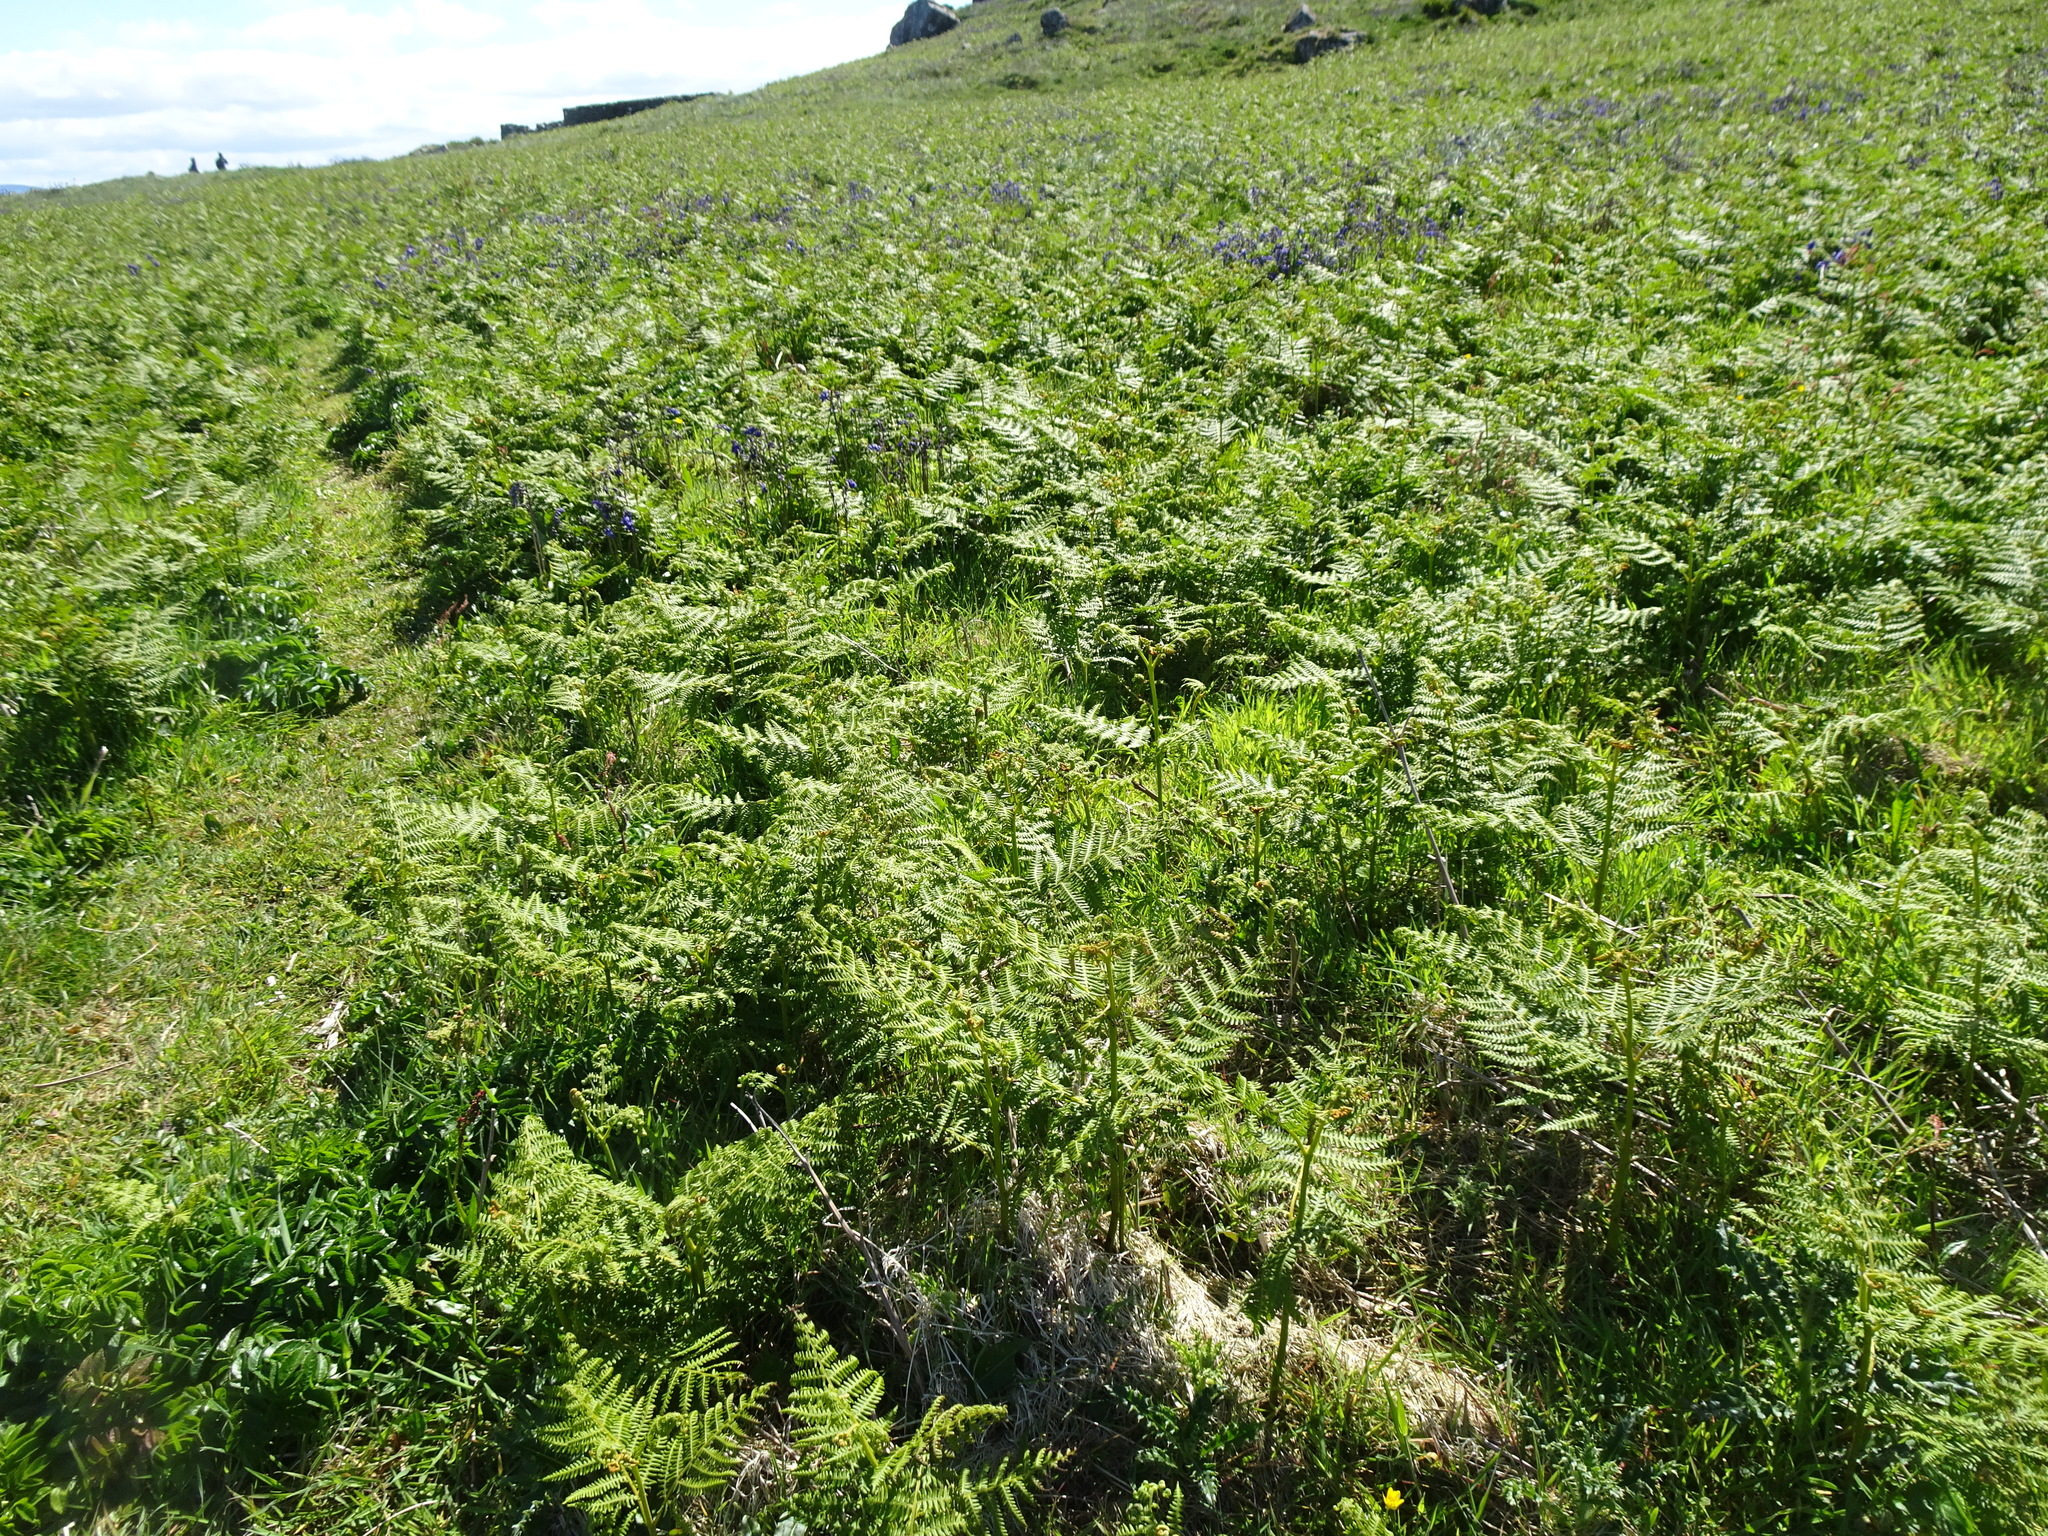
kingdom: Plantae
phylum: Tracheophyta
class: Polypodiopsida
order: Polypodiales
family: Dennstaedtiaceae
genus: Pteridium
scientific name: Pteridium aquilinum
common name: Bracken
